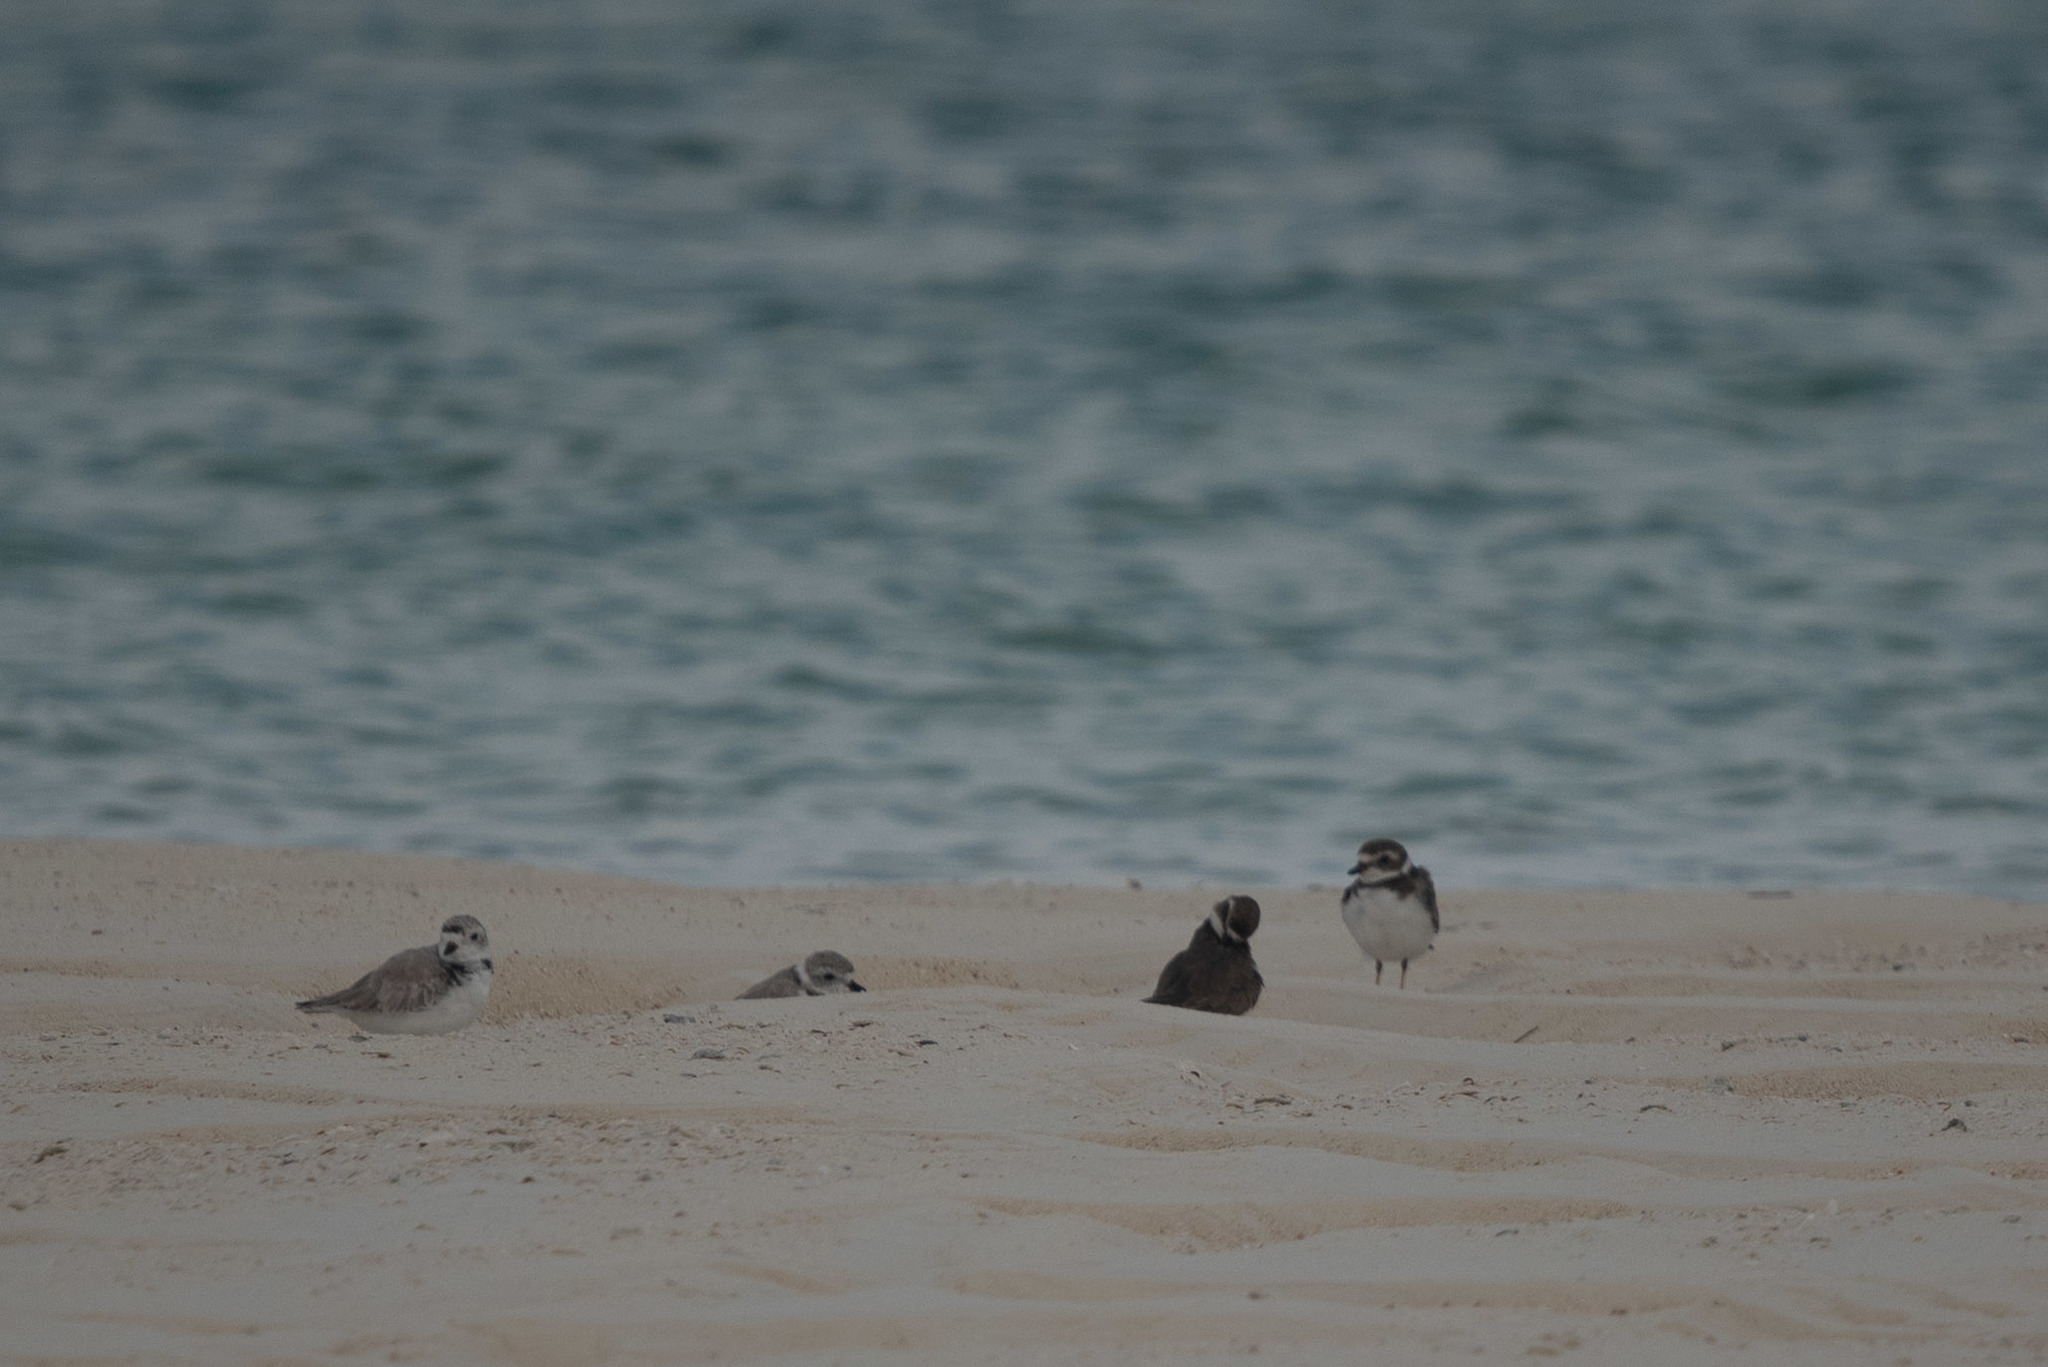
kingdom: Animalia
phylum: Chordata
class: Aves
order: Charadriiformes
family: Charadriidae
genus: Charadrius
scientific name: Charadrius melodus
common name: Piping plover
